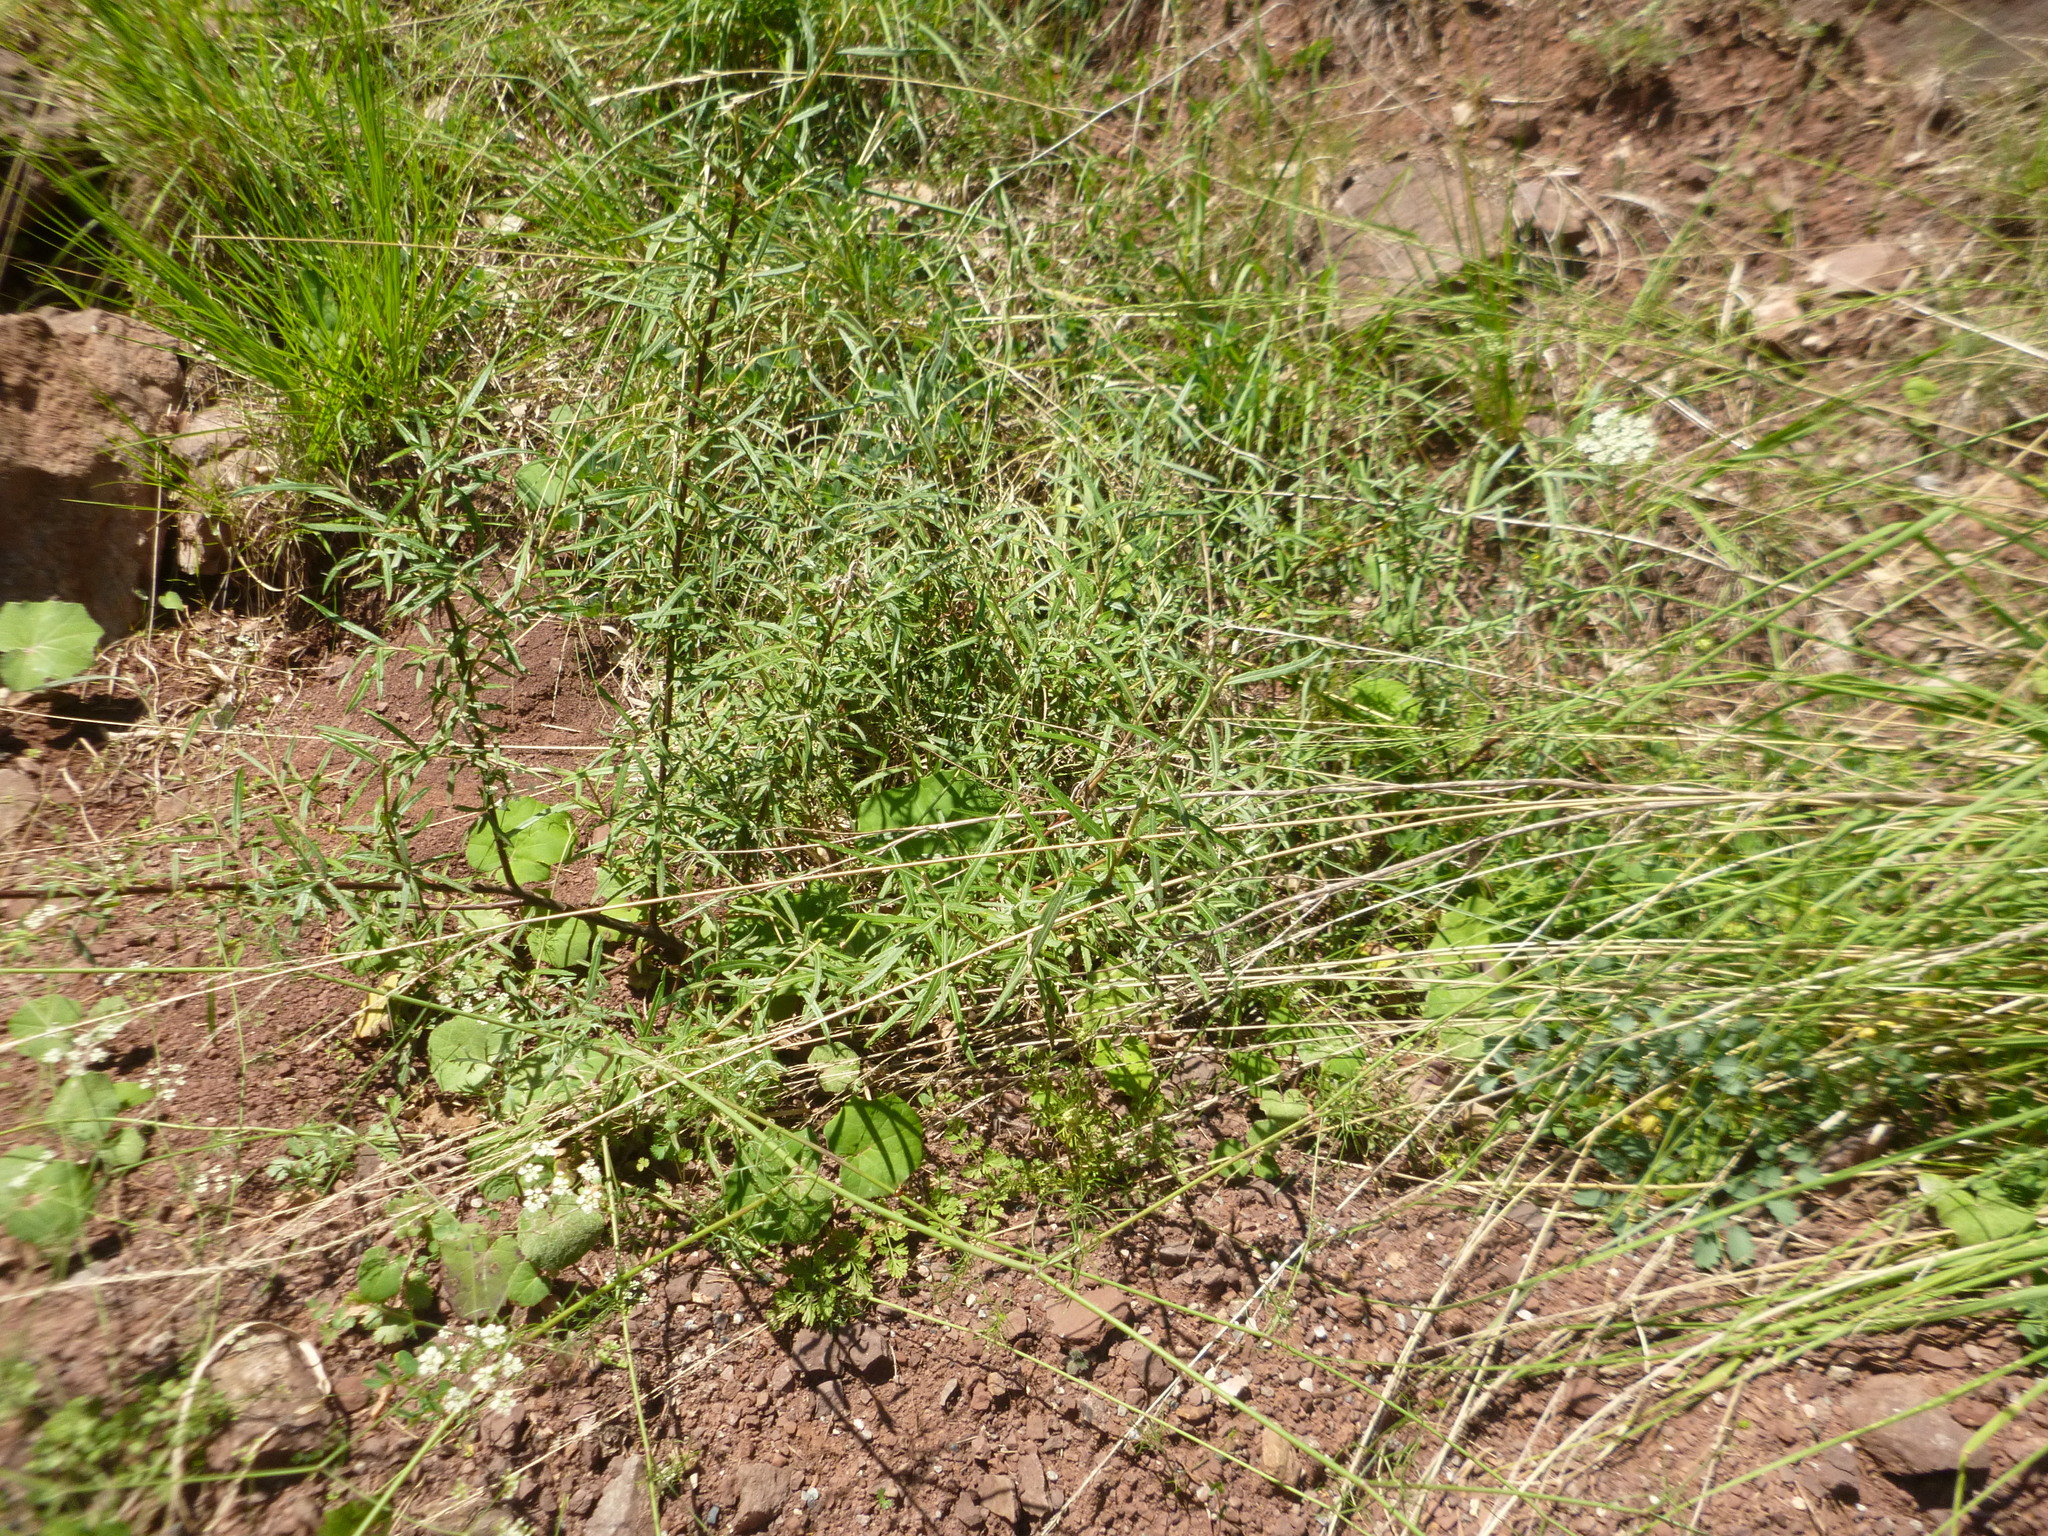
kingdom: Plantae
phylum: Tracheophyta
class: Magnoliopsida
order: Malpighiales
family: Salicaceae
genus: Salix
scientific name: Salix eleagnos
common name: Elaeagnus willow
